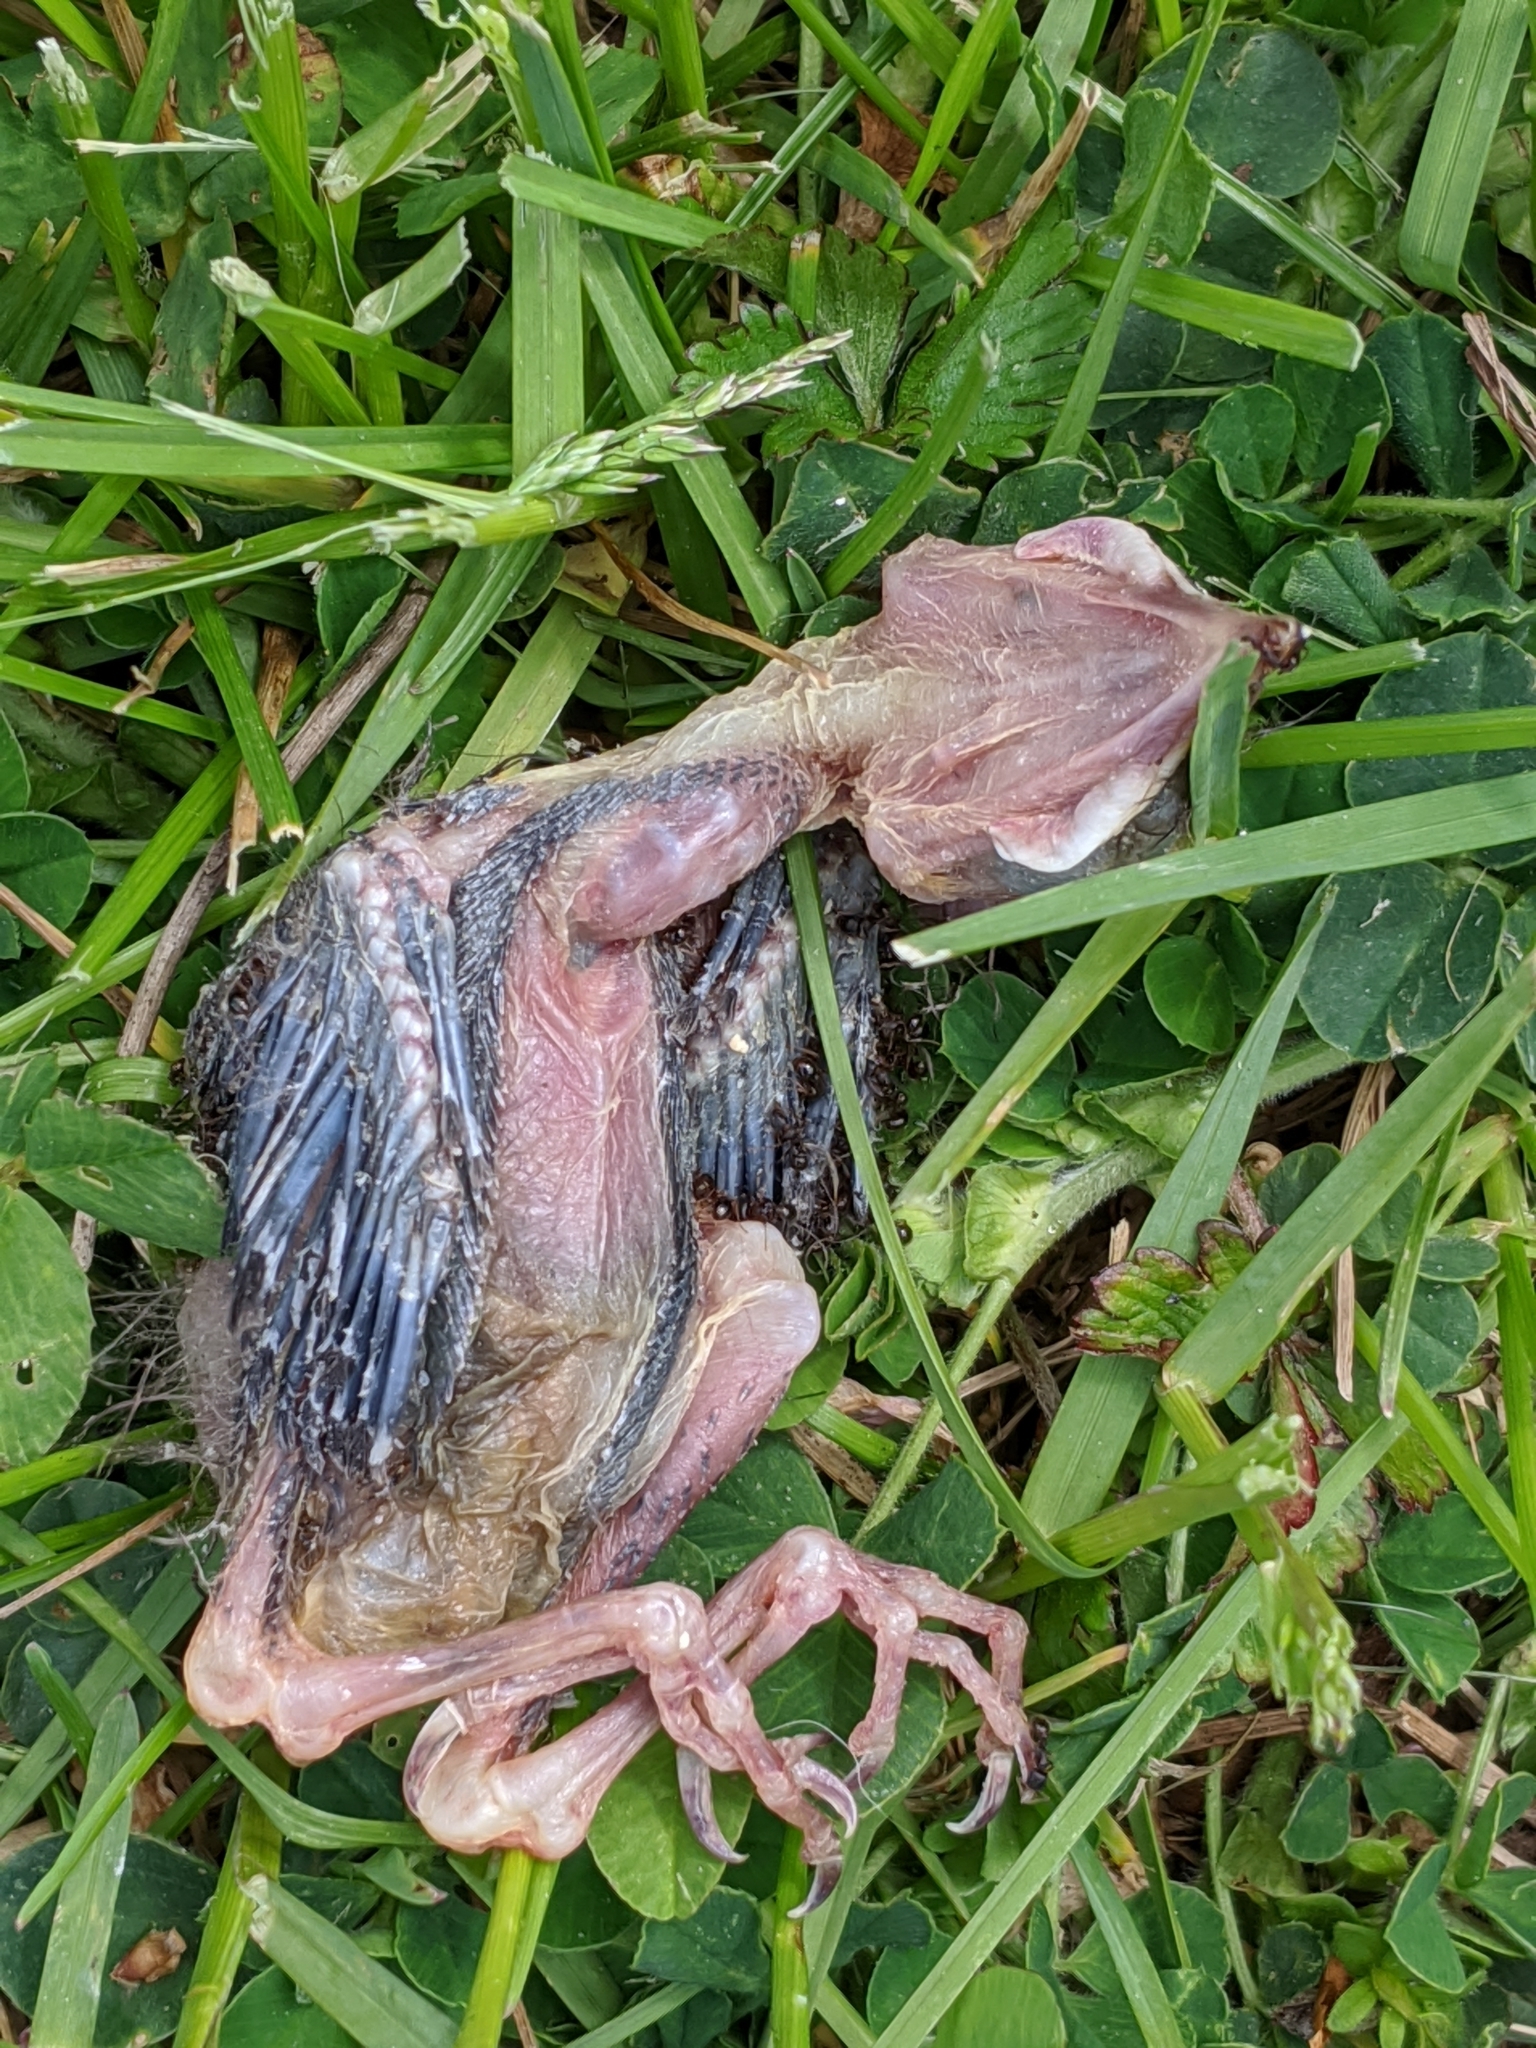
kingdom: Animalia
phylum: Arthropoda
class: Insecta
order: Hymenoptera
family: Formicidae
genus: Tetramorium
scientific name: Tetramorium immigrans
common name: Pavement ant
